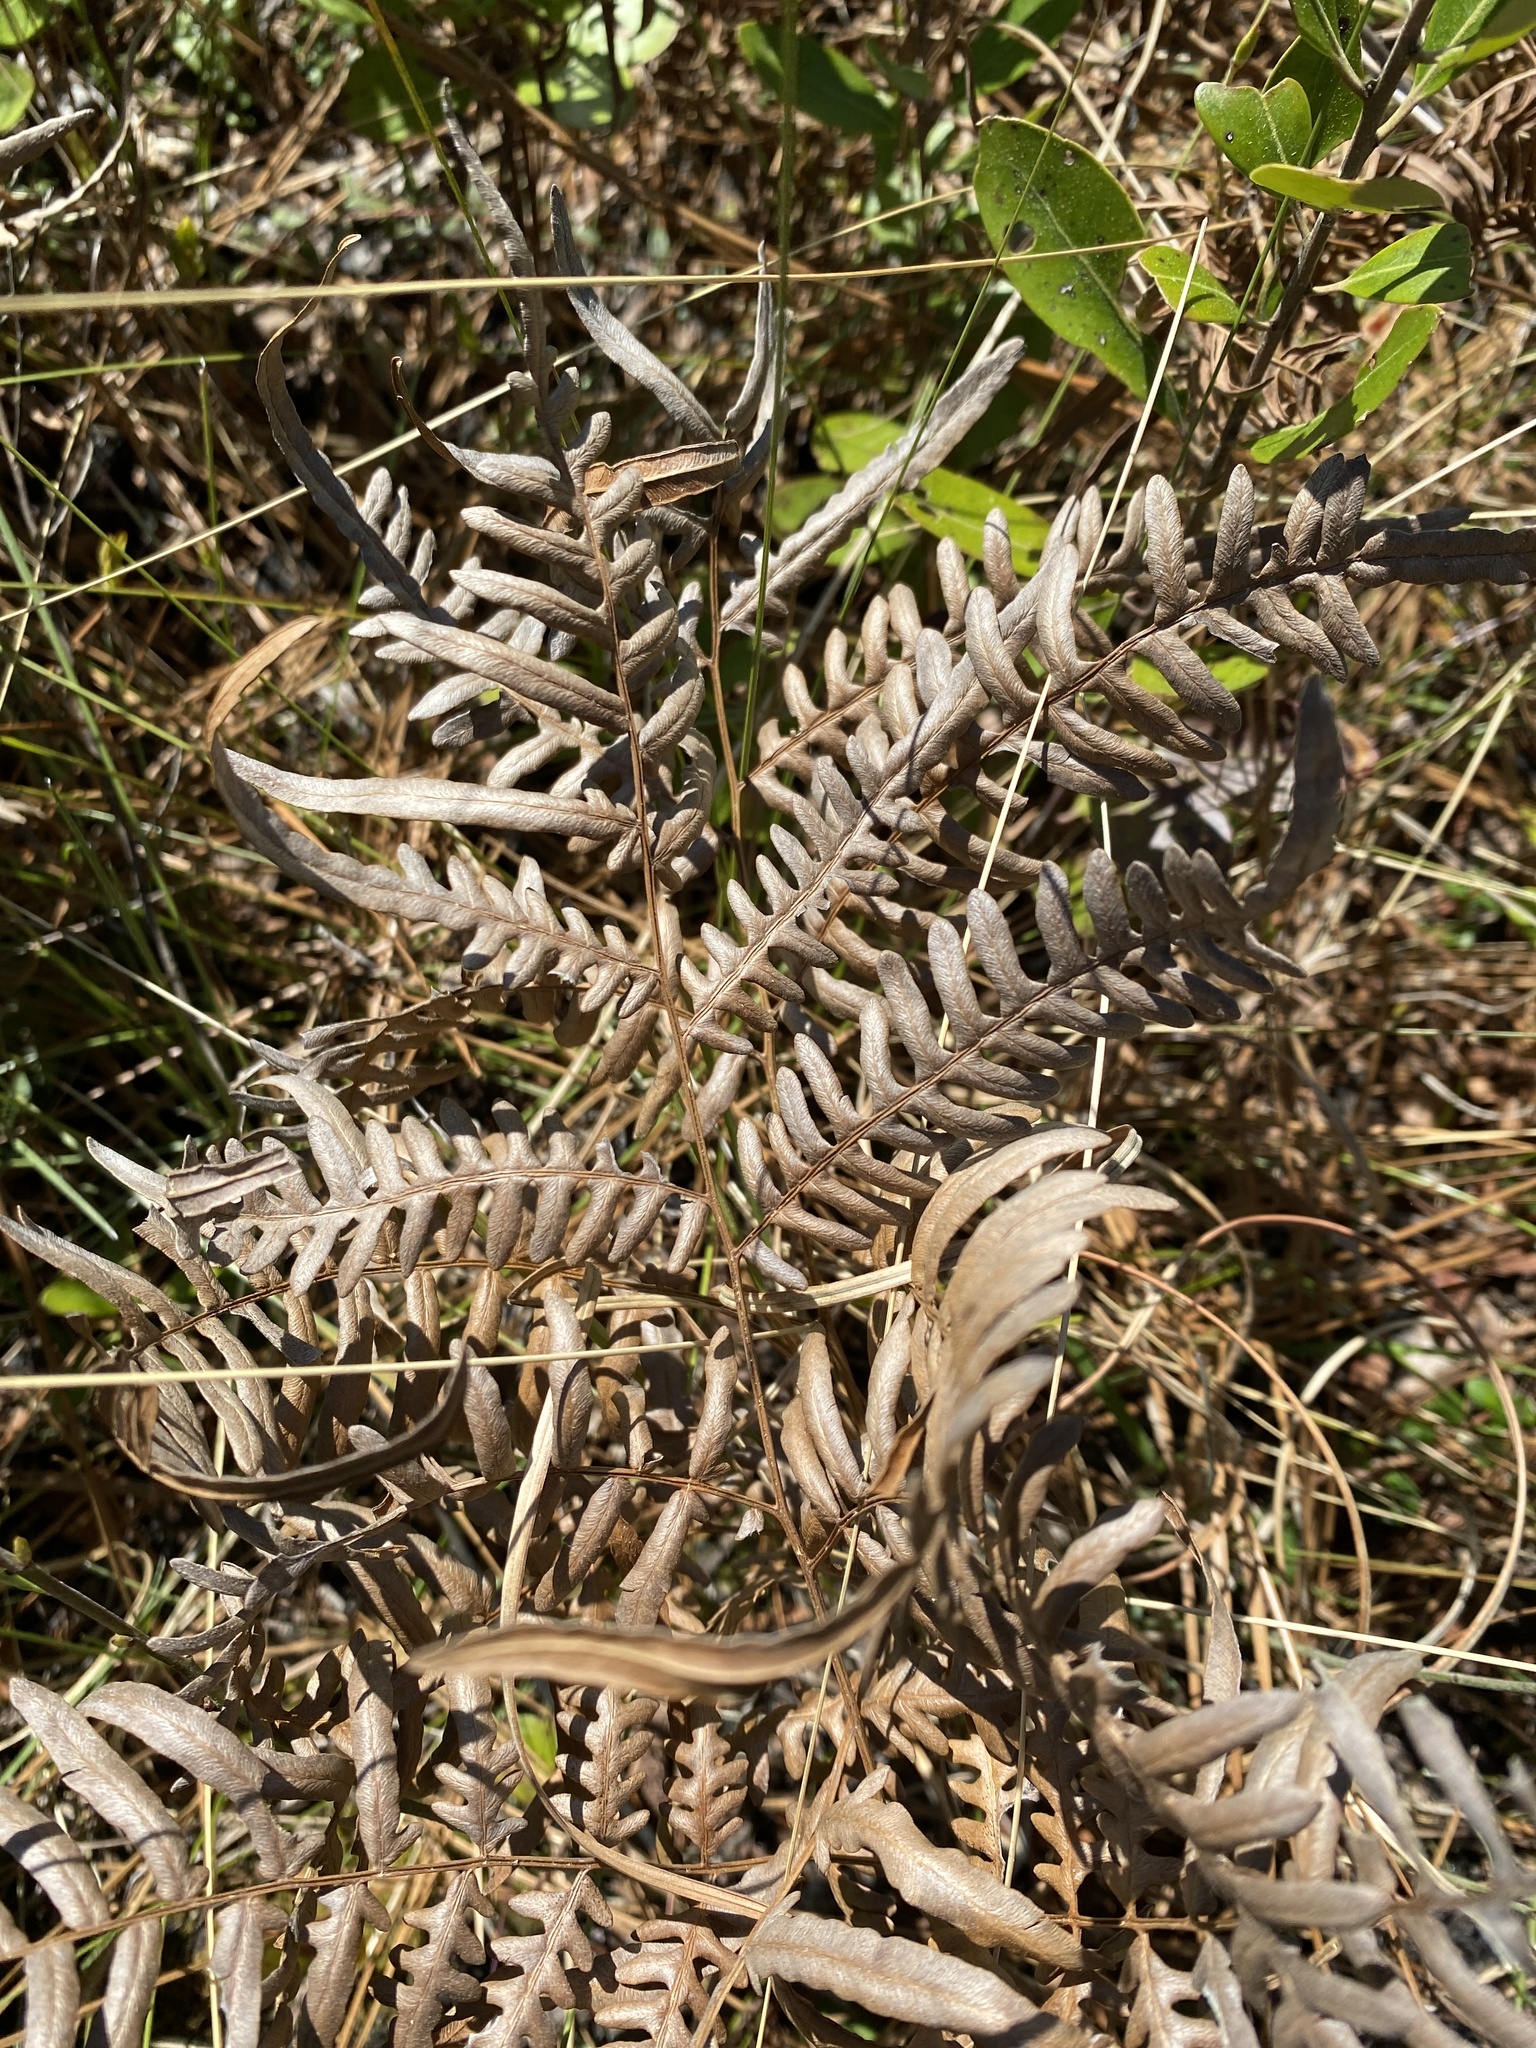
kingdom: Plantae
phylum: Tracheophyta
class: Polypodiopsida
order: Polypodiales
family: Dennstaedtiaceae
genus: Pteridium
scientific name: Pteridium
